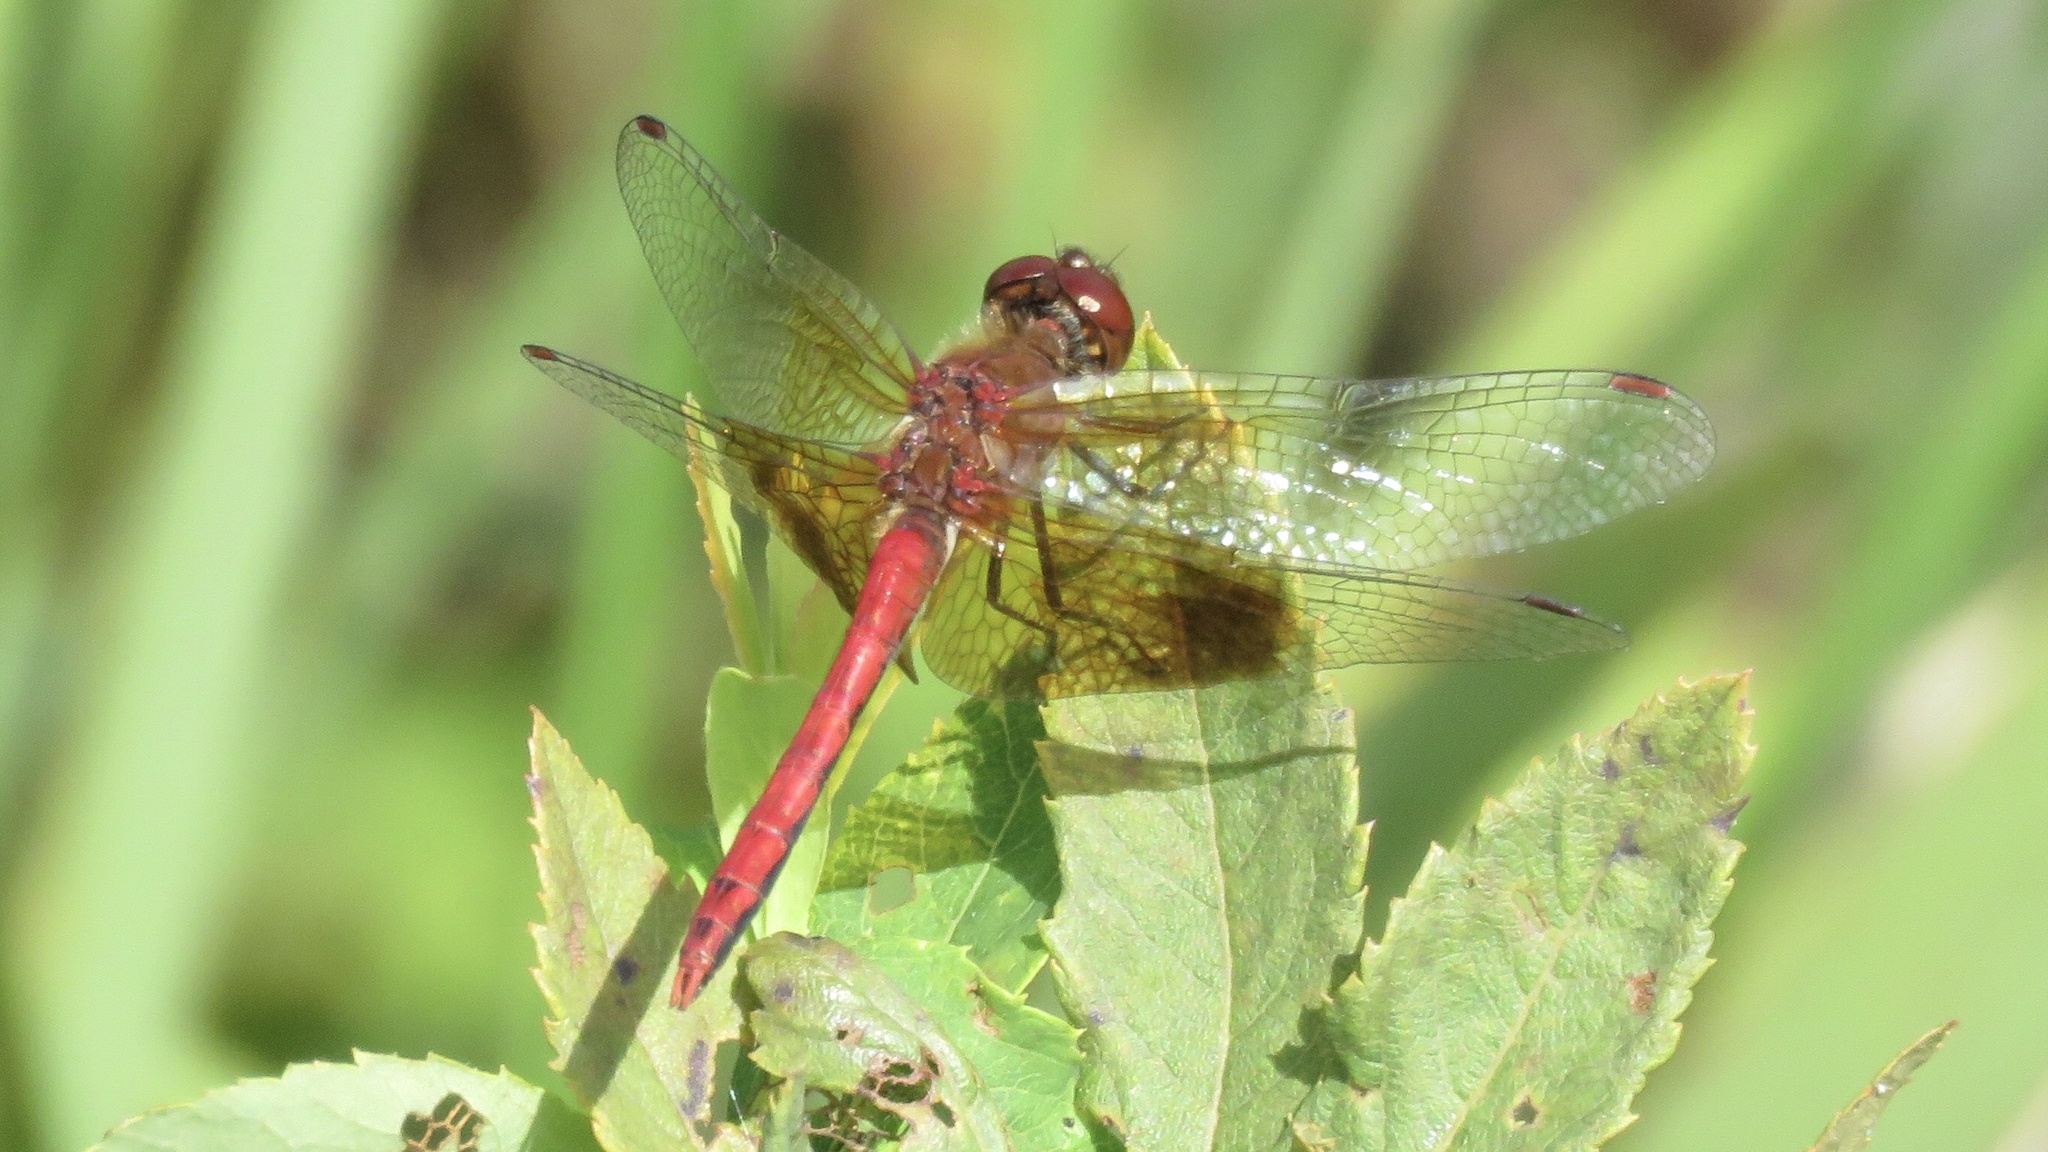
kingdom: Animalia
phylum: Arthropoda
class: Insecta
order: Odonata
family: Libellulidae
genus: Sympetrum
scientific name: Sympetrum semicinctum
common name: Band-winged meadowhawk
